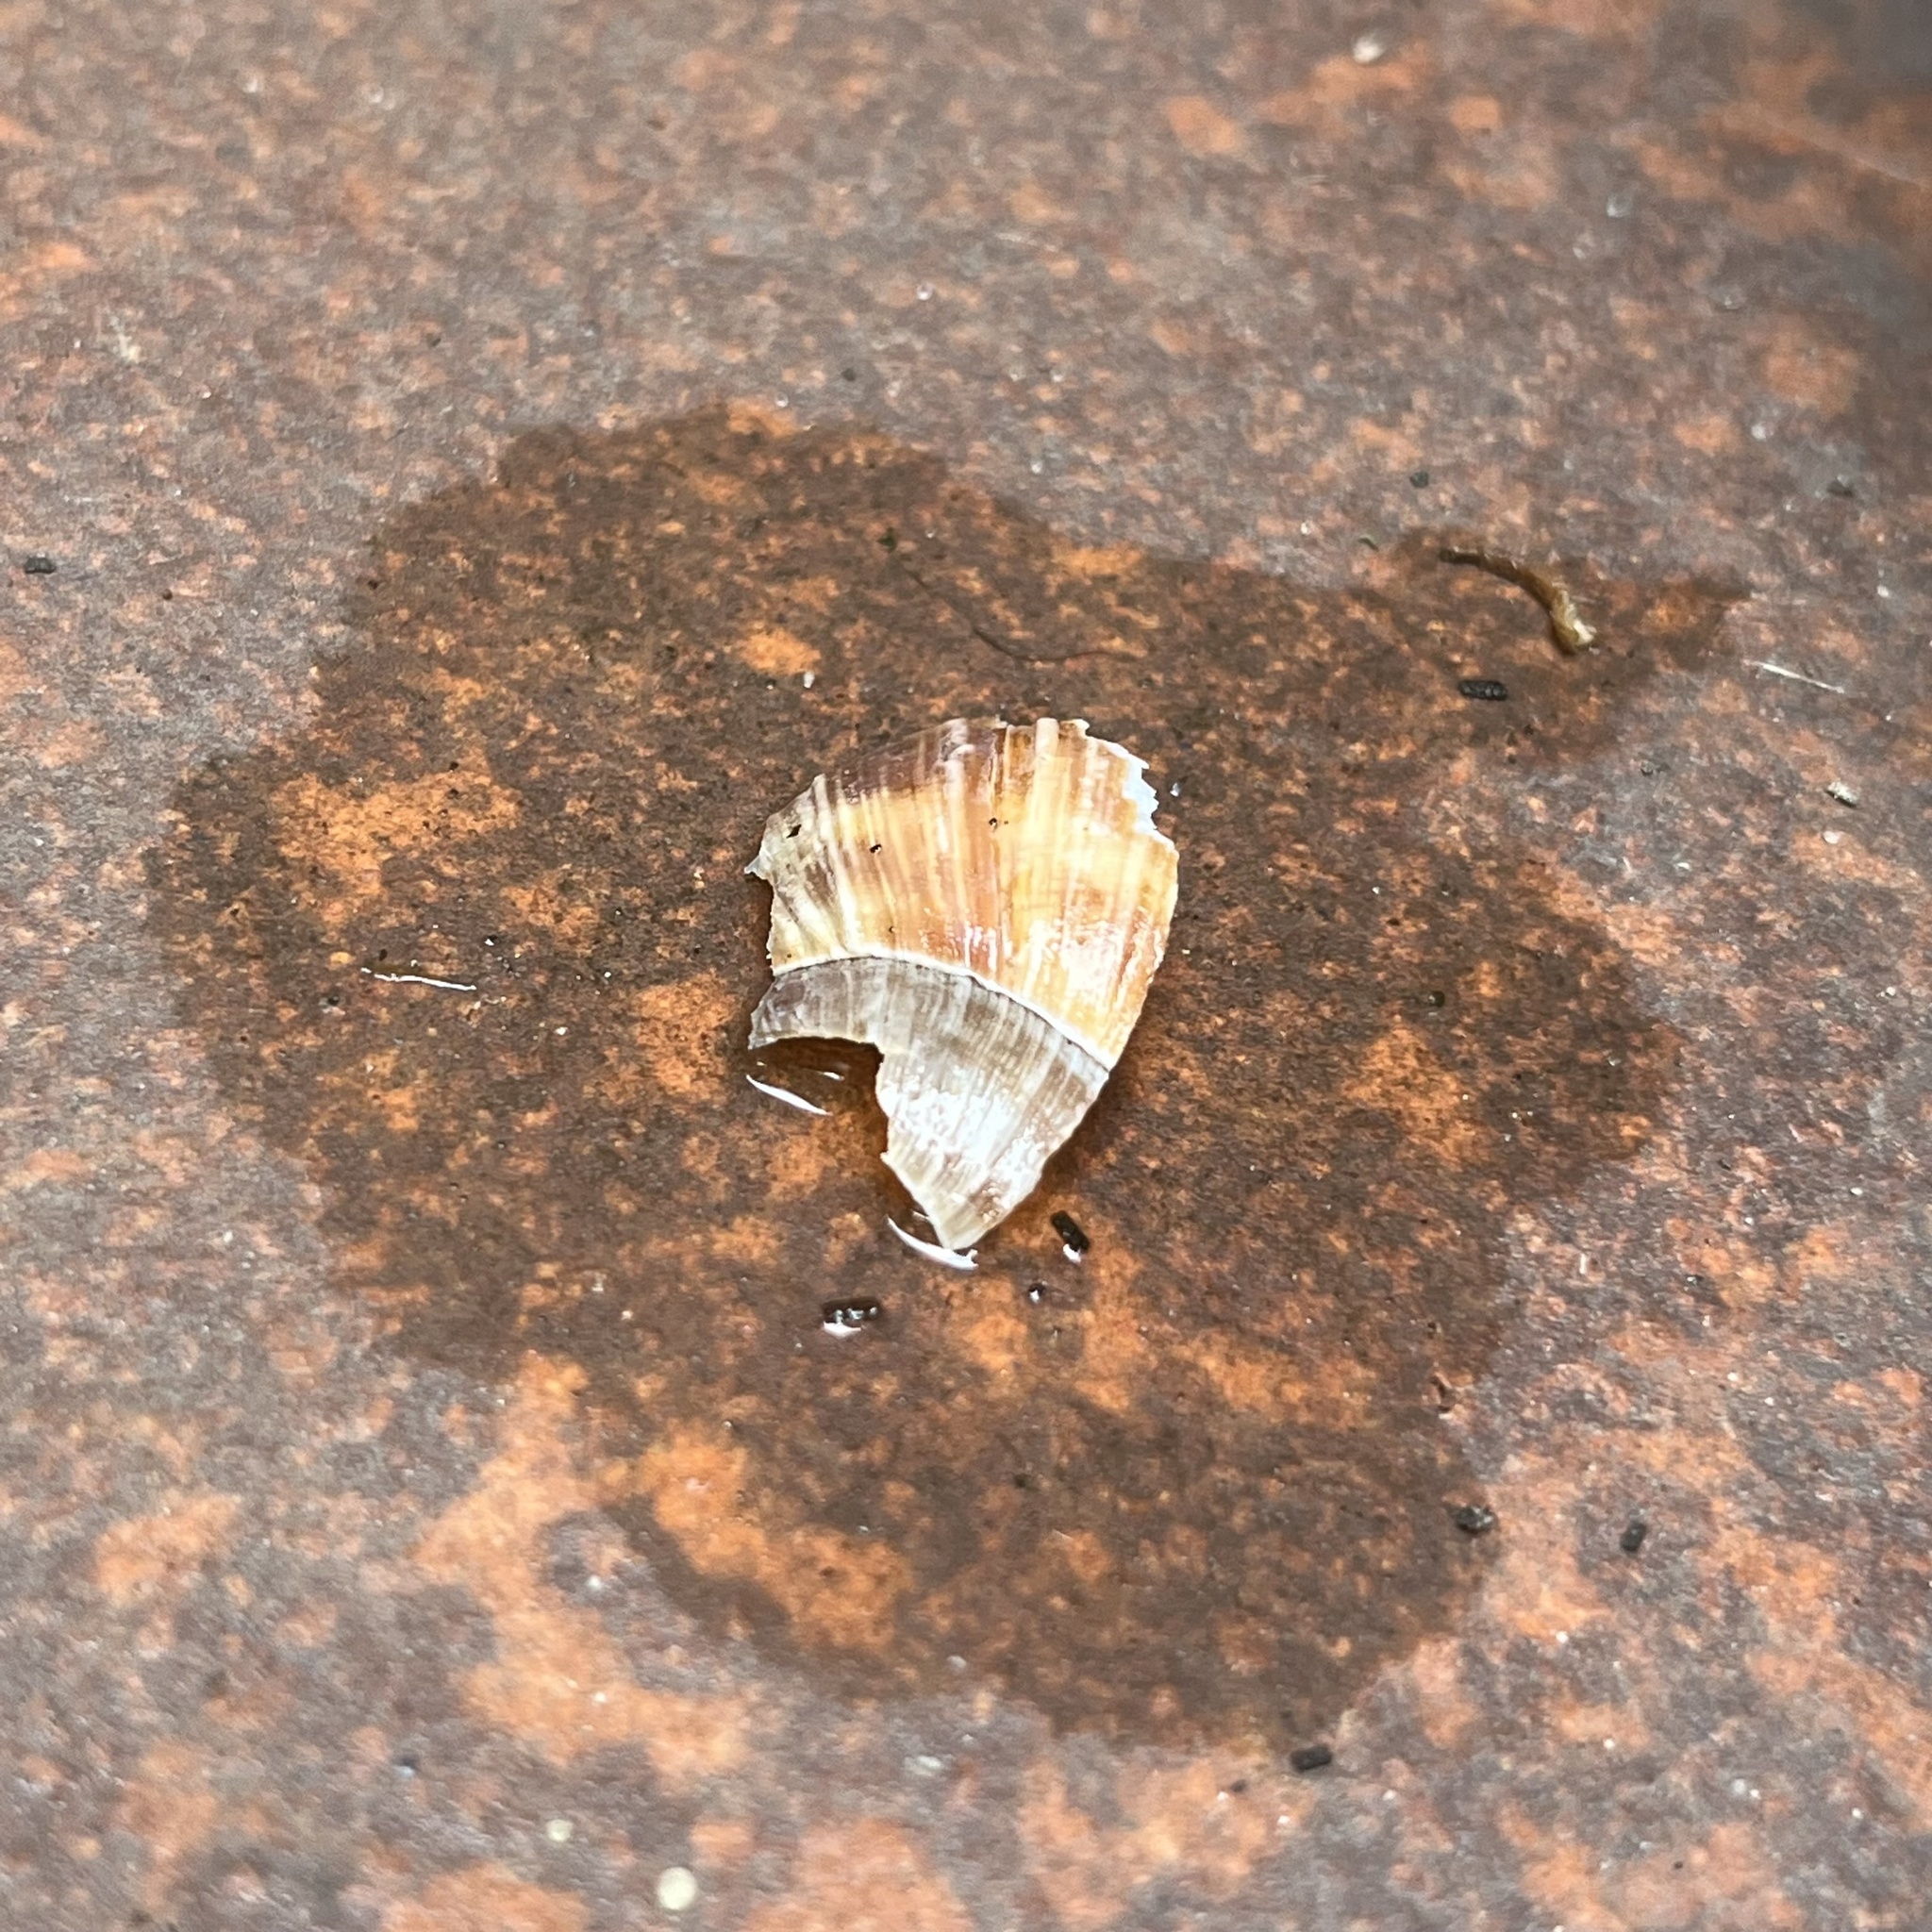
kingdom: Animalia
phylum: Mollusca
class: Gastropoda
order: Stylommatophora
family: Helicidae
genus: Helix
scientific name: Helix pomatia
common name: Roman snail
